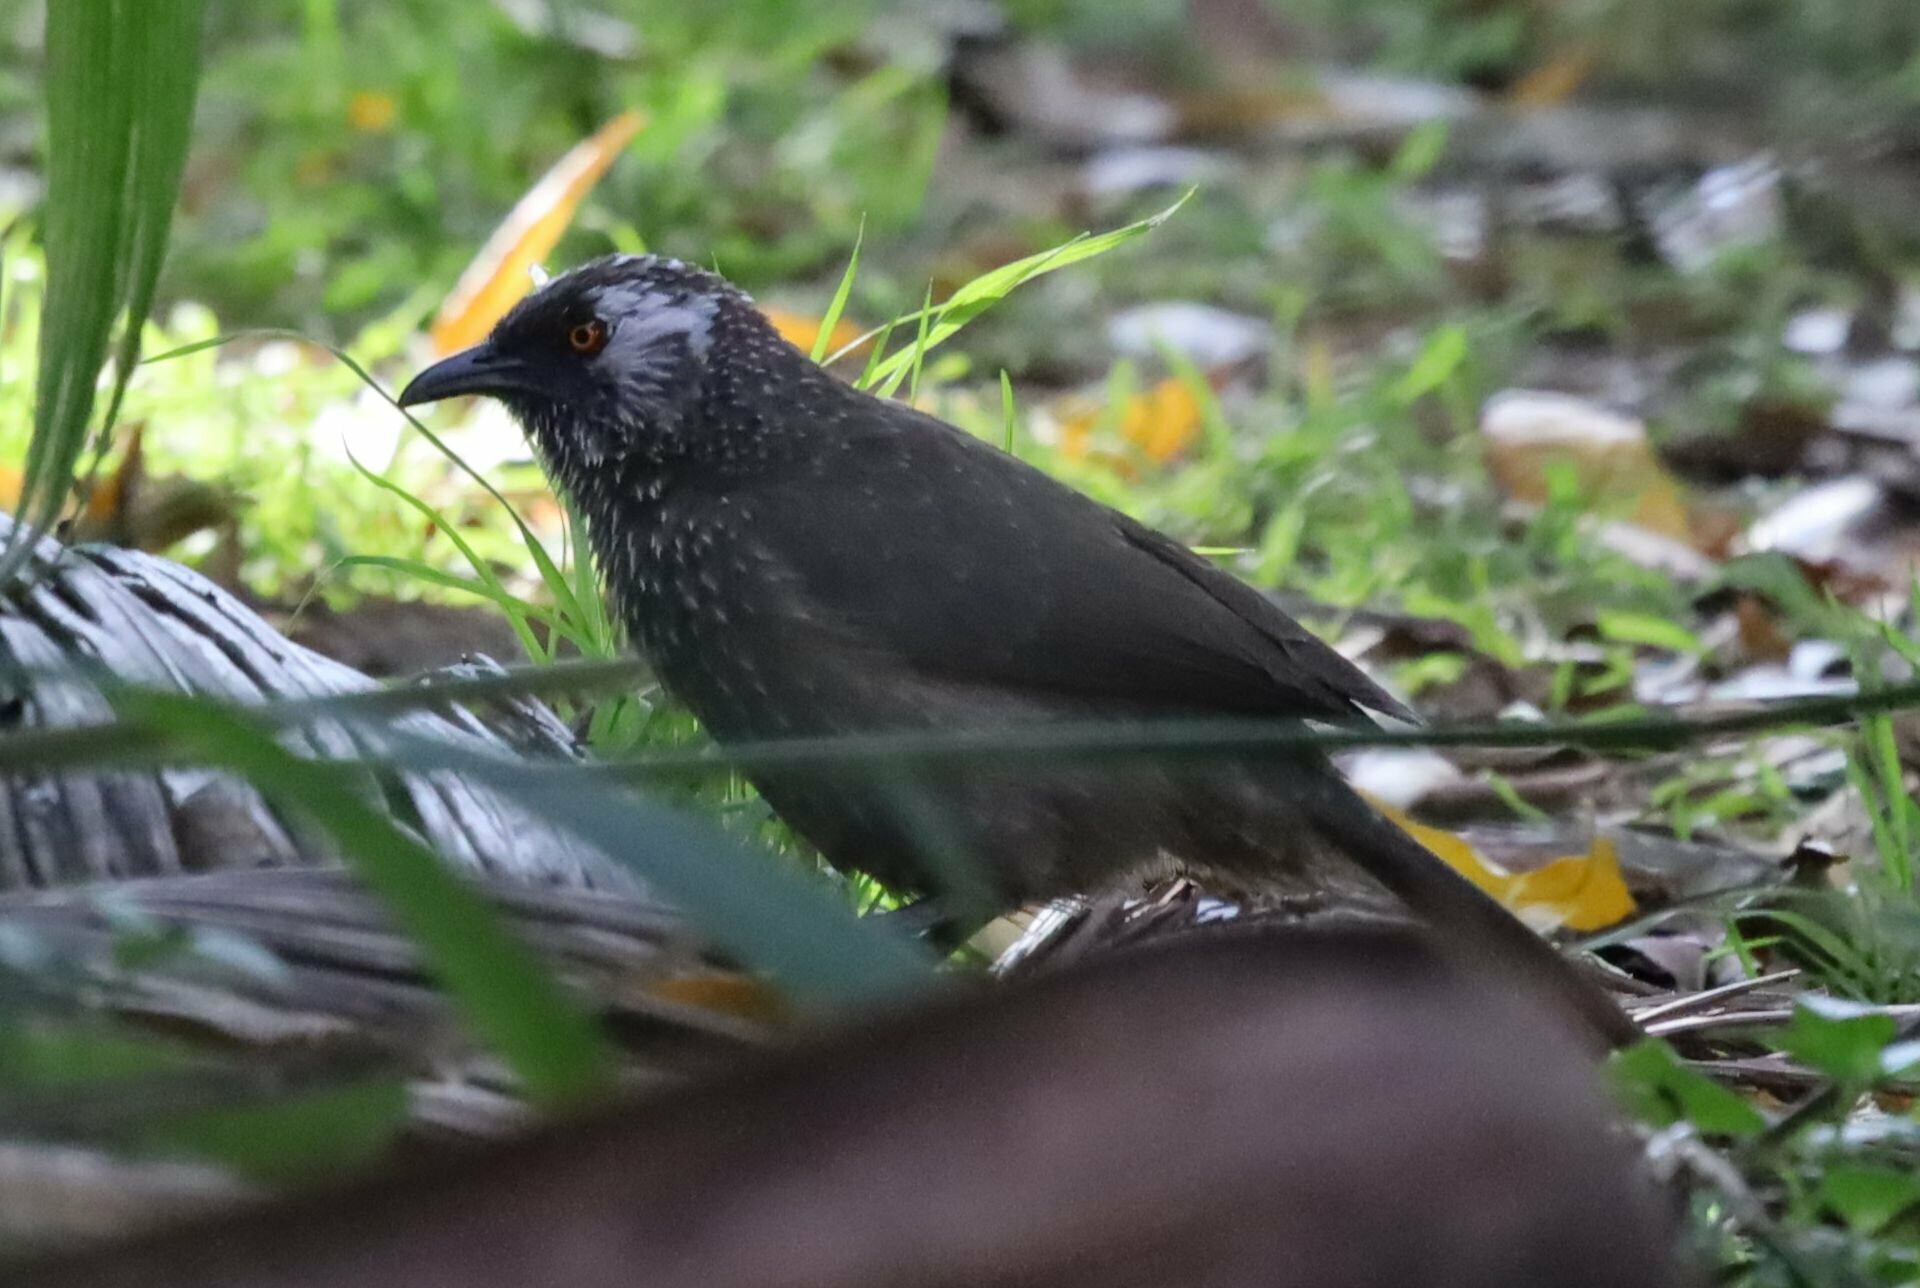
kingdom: Animalia
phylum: Chordata
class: Aves
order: Passeriformes
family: Leiothrichidae
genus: Turdoides
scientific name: Turdoides jardineii
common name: Arrow-marked babbler
